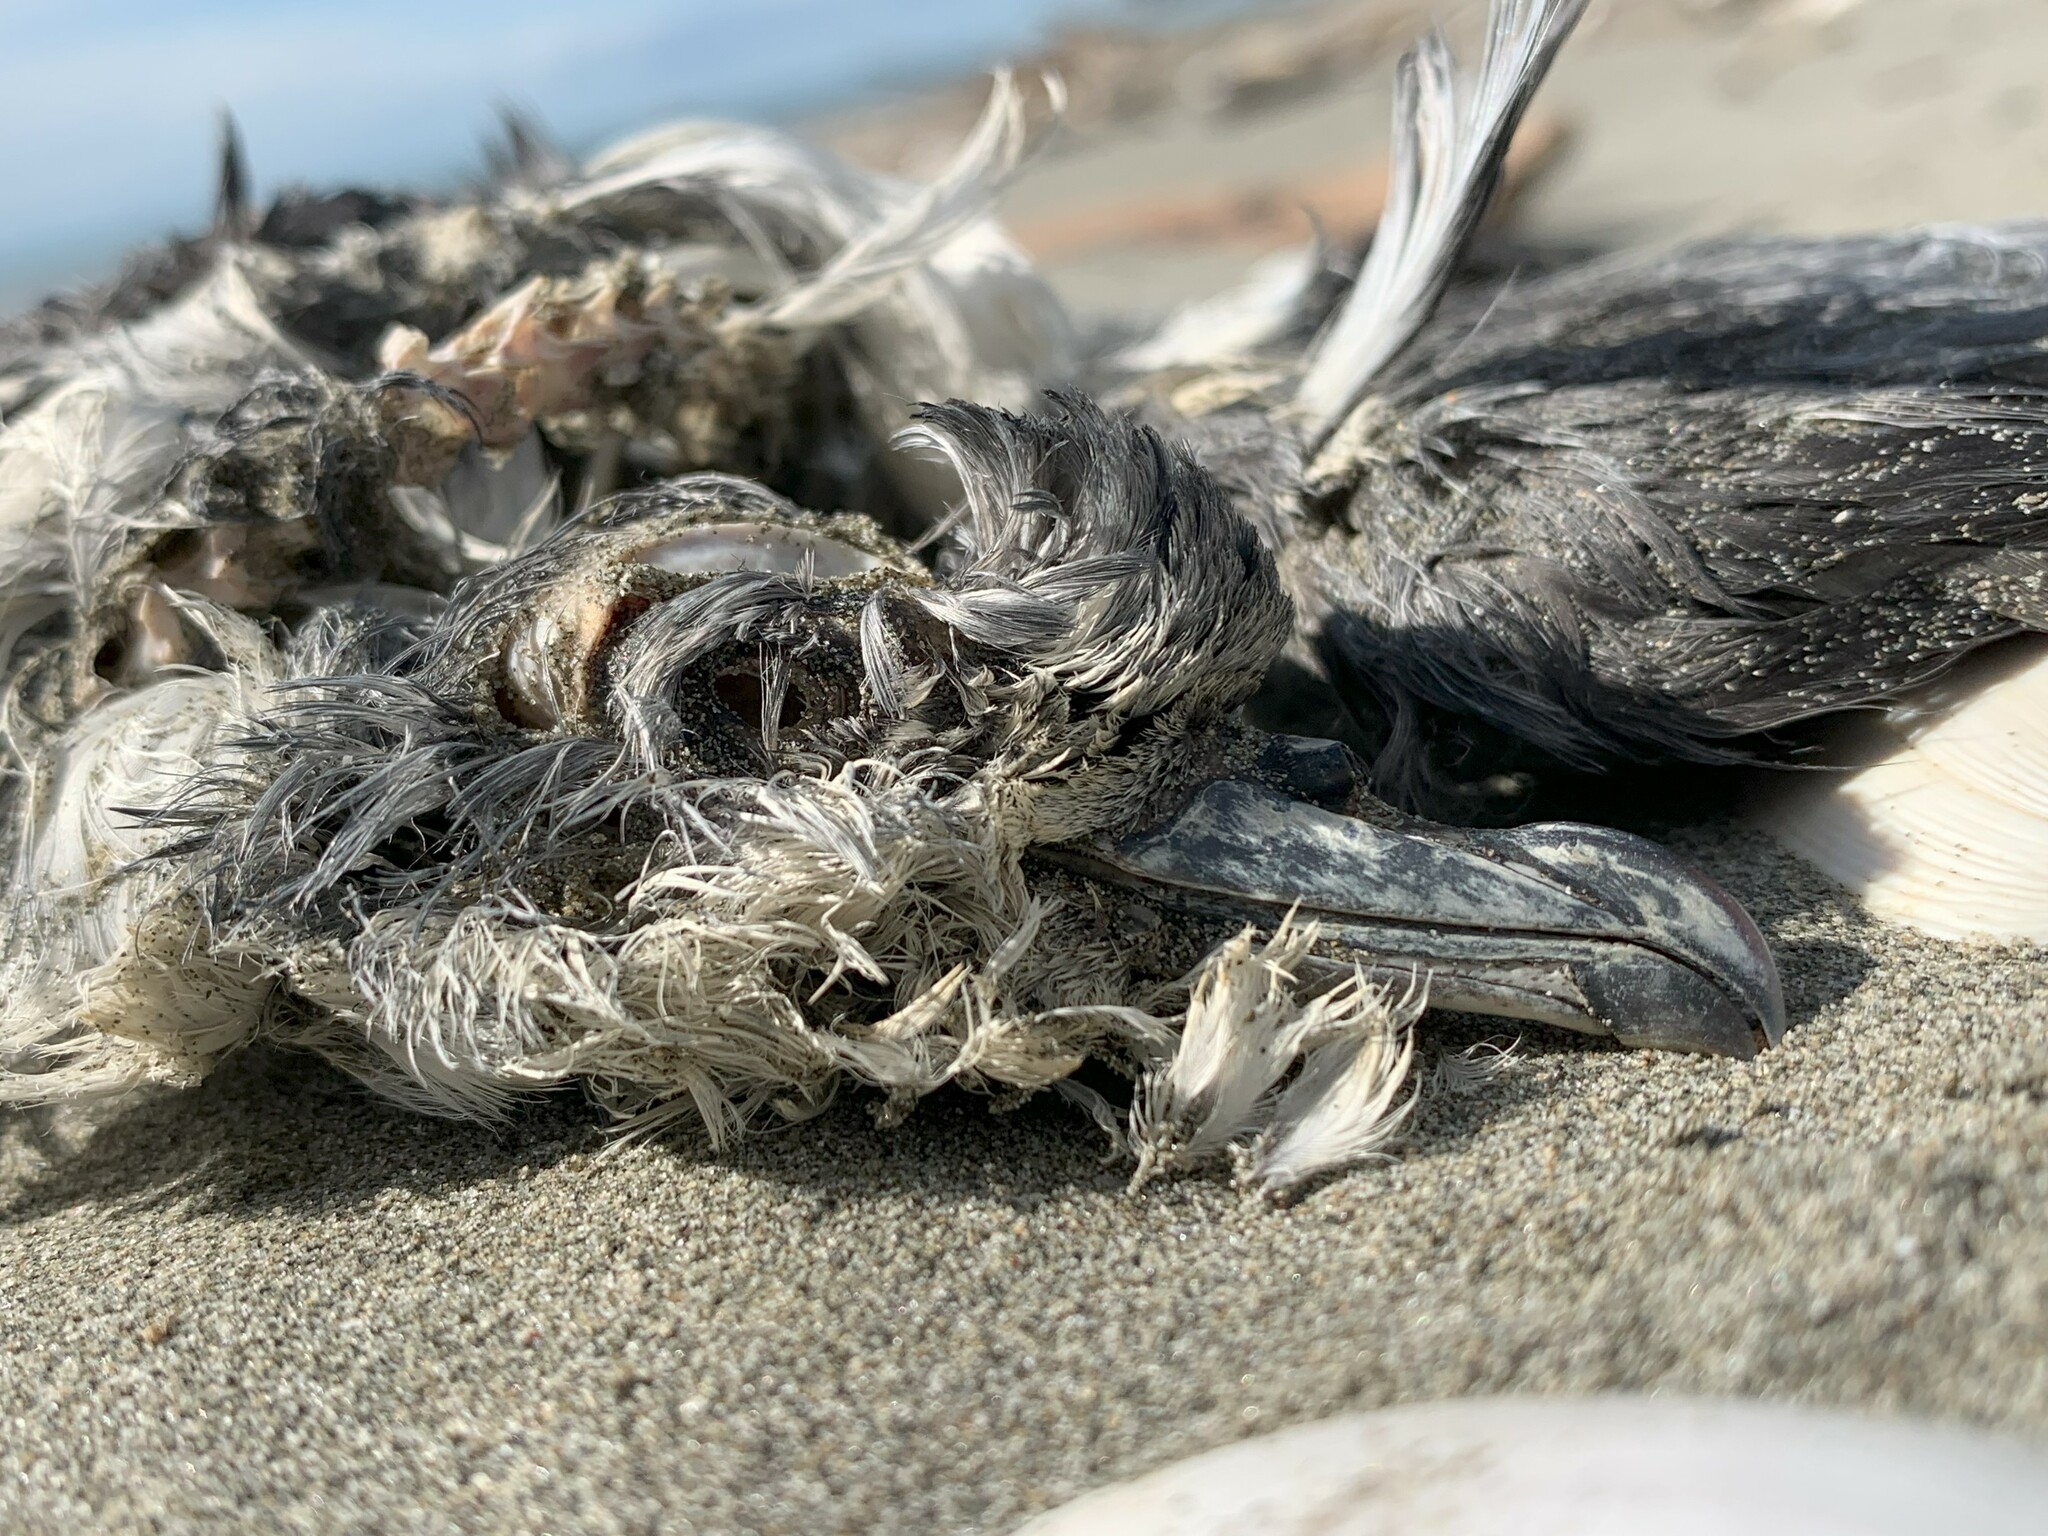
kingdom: Animalia
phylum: Chordata
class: Aves
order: Procellariiformes
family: Procellariidae
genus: Pachyptila
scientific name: Pachyptila turtur
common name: Fairy prion
